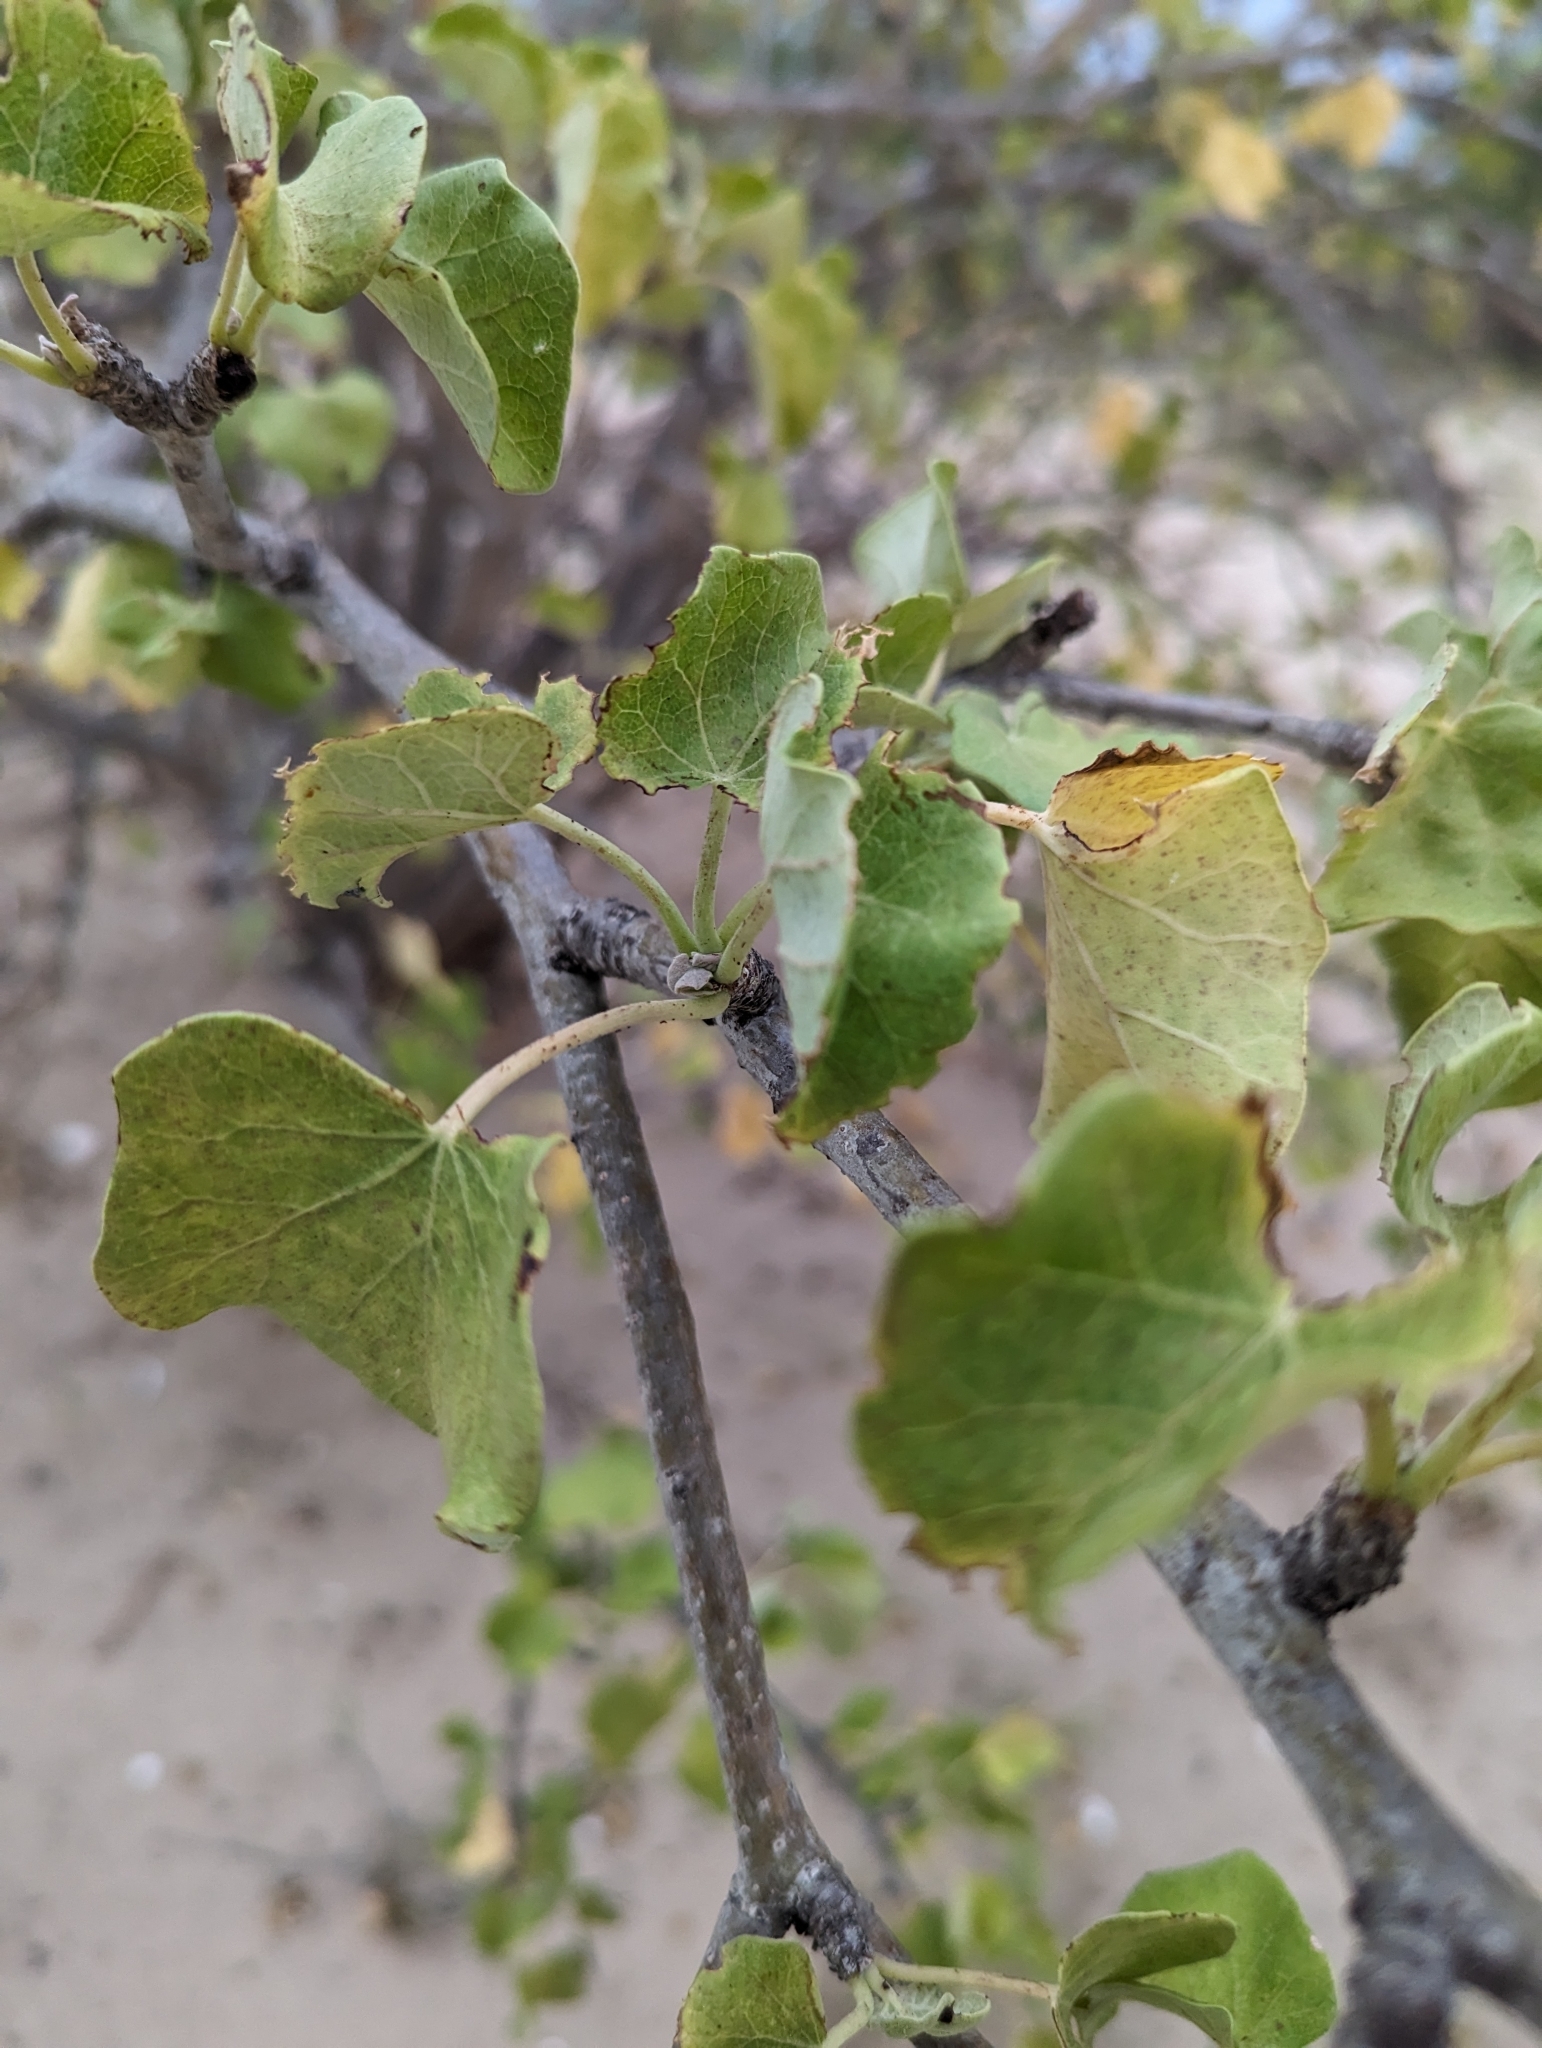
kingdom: Plantae
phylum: Tracheophyta
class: Magnoliopsida
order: Malpighiales
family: Euphorbiaceae
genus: Jatropha
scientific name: Jatropha cinerea
